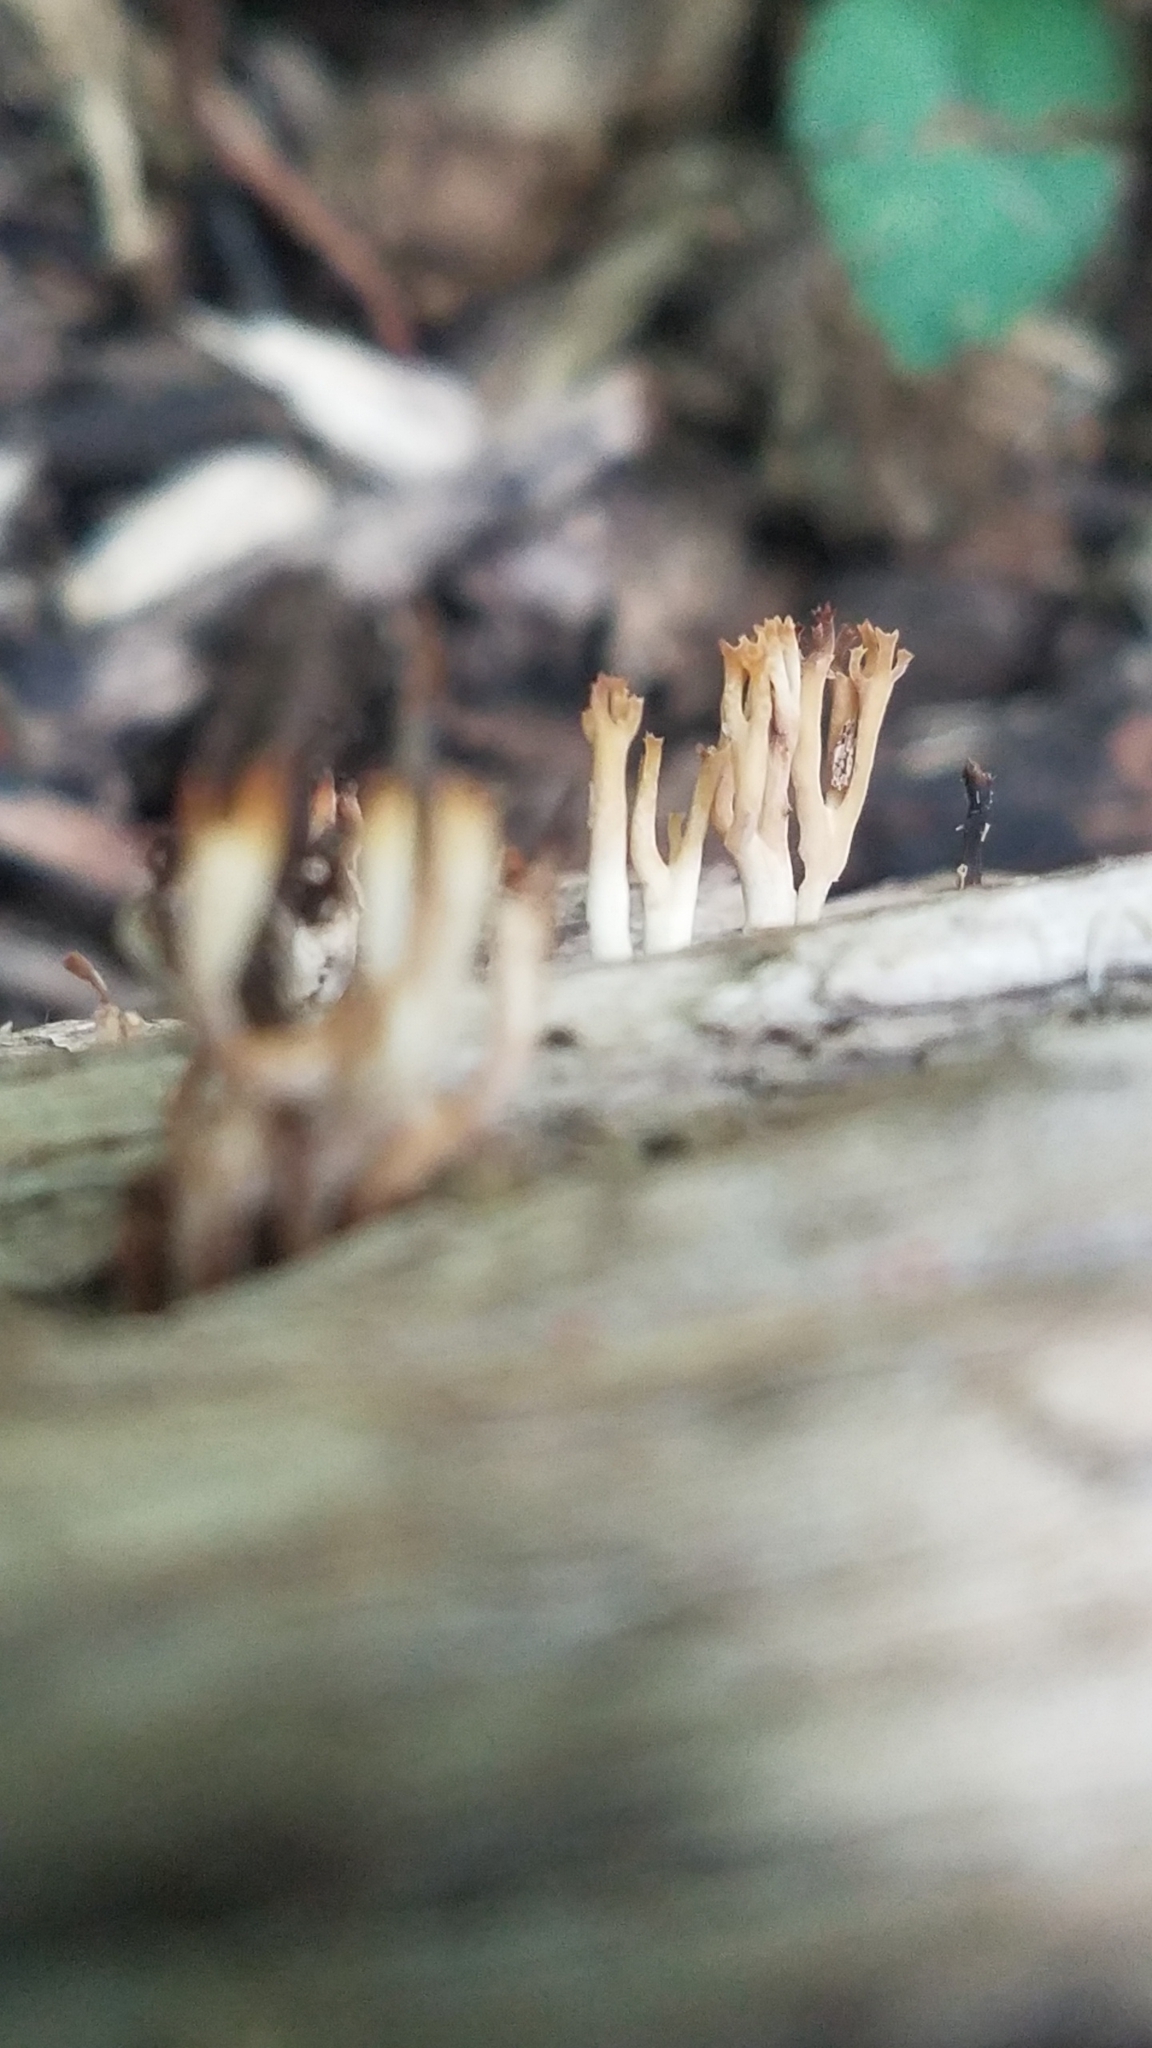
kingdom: Fungi
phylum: Basidiomycota
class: Agaricomycetes
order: Russulales
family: Auriscalpiaceae
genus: Artomyces
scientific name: Artomyces pyxidatus
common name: Crown-tipped coral fungus
